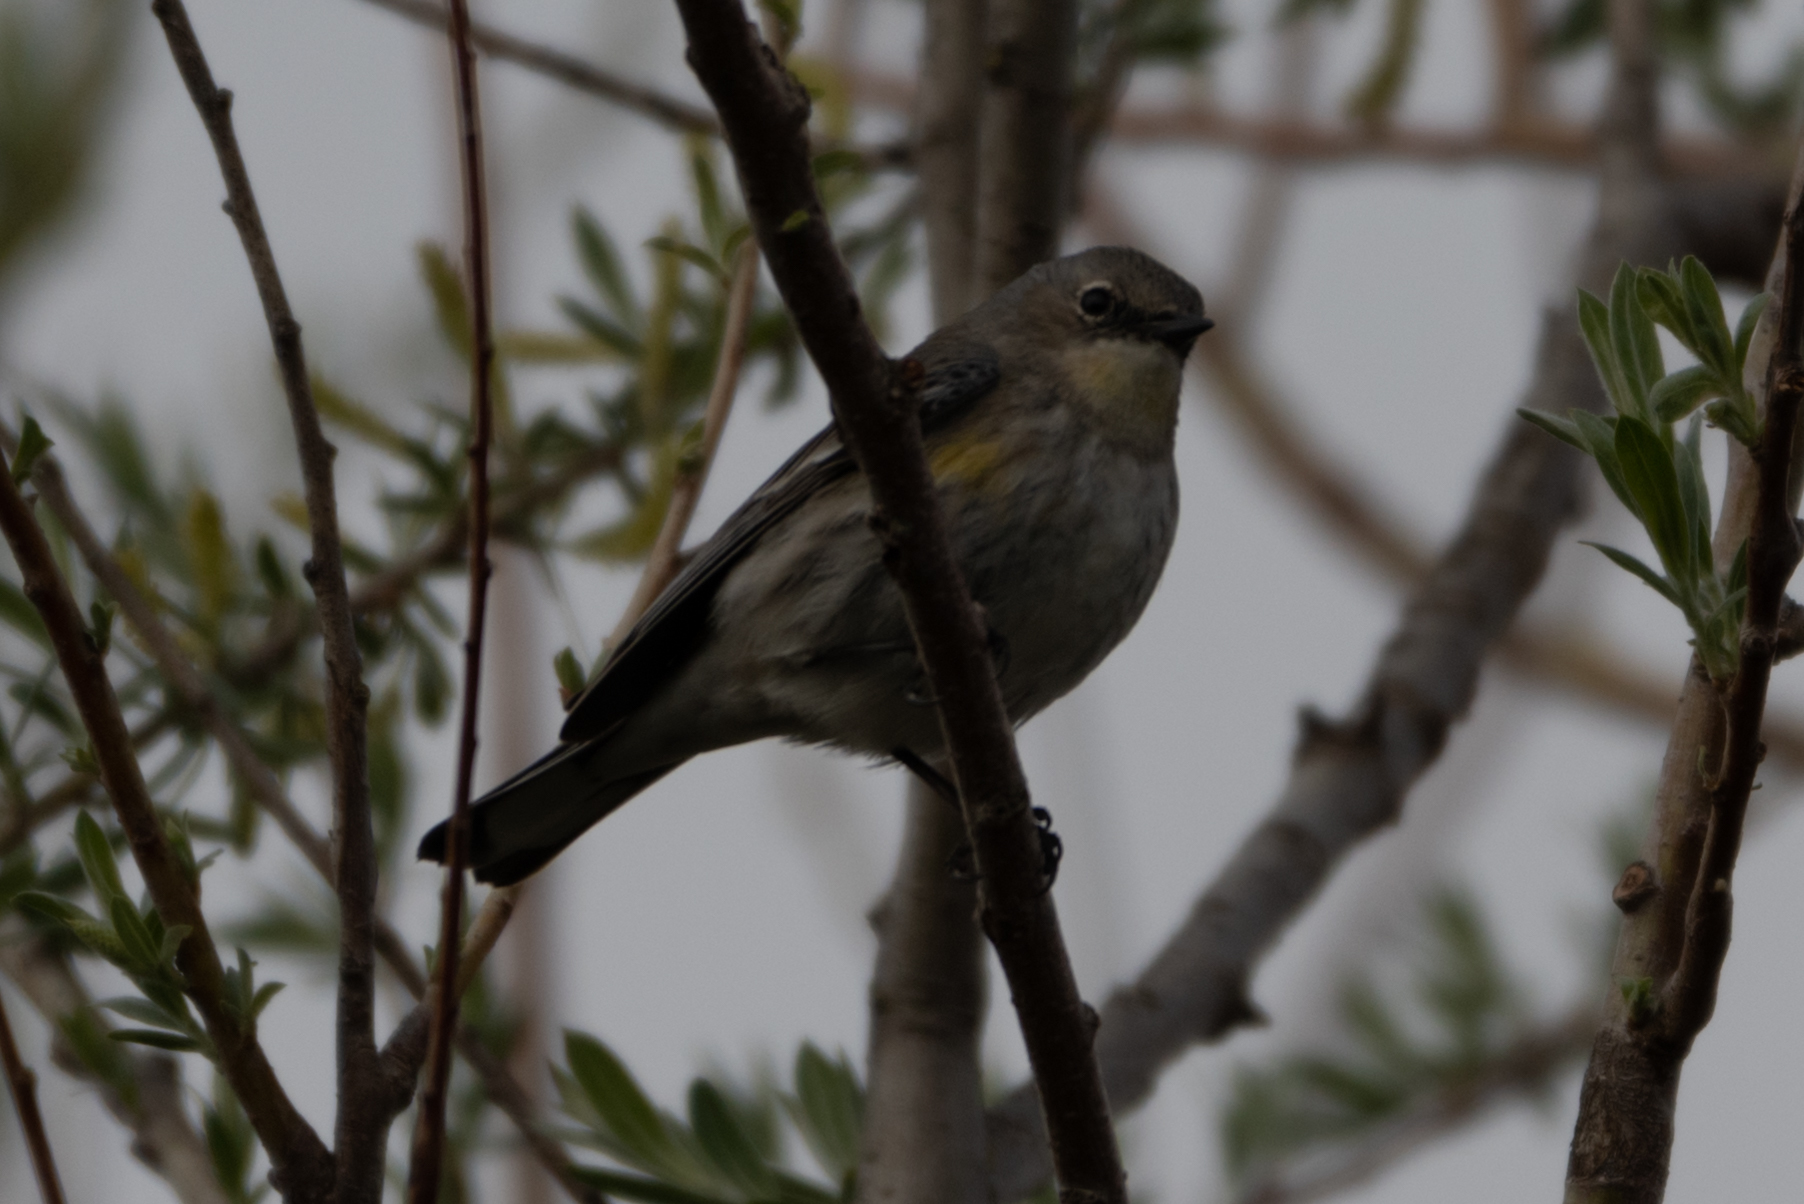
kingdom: Animalia
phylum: Chordata
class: Aves
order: Passeriformes
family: Parulidae
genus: Setophaga
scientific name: Setophaga coronata
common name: Myrtle warbler
